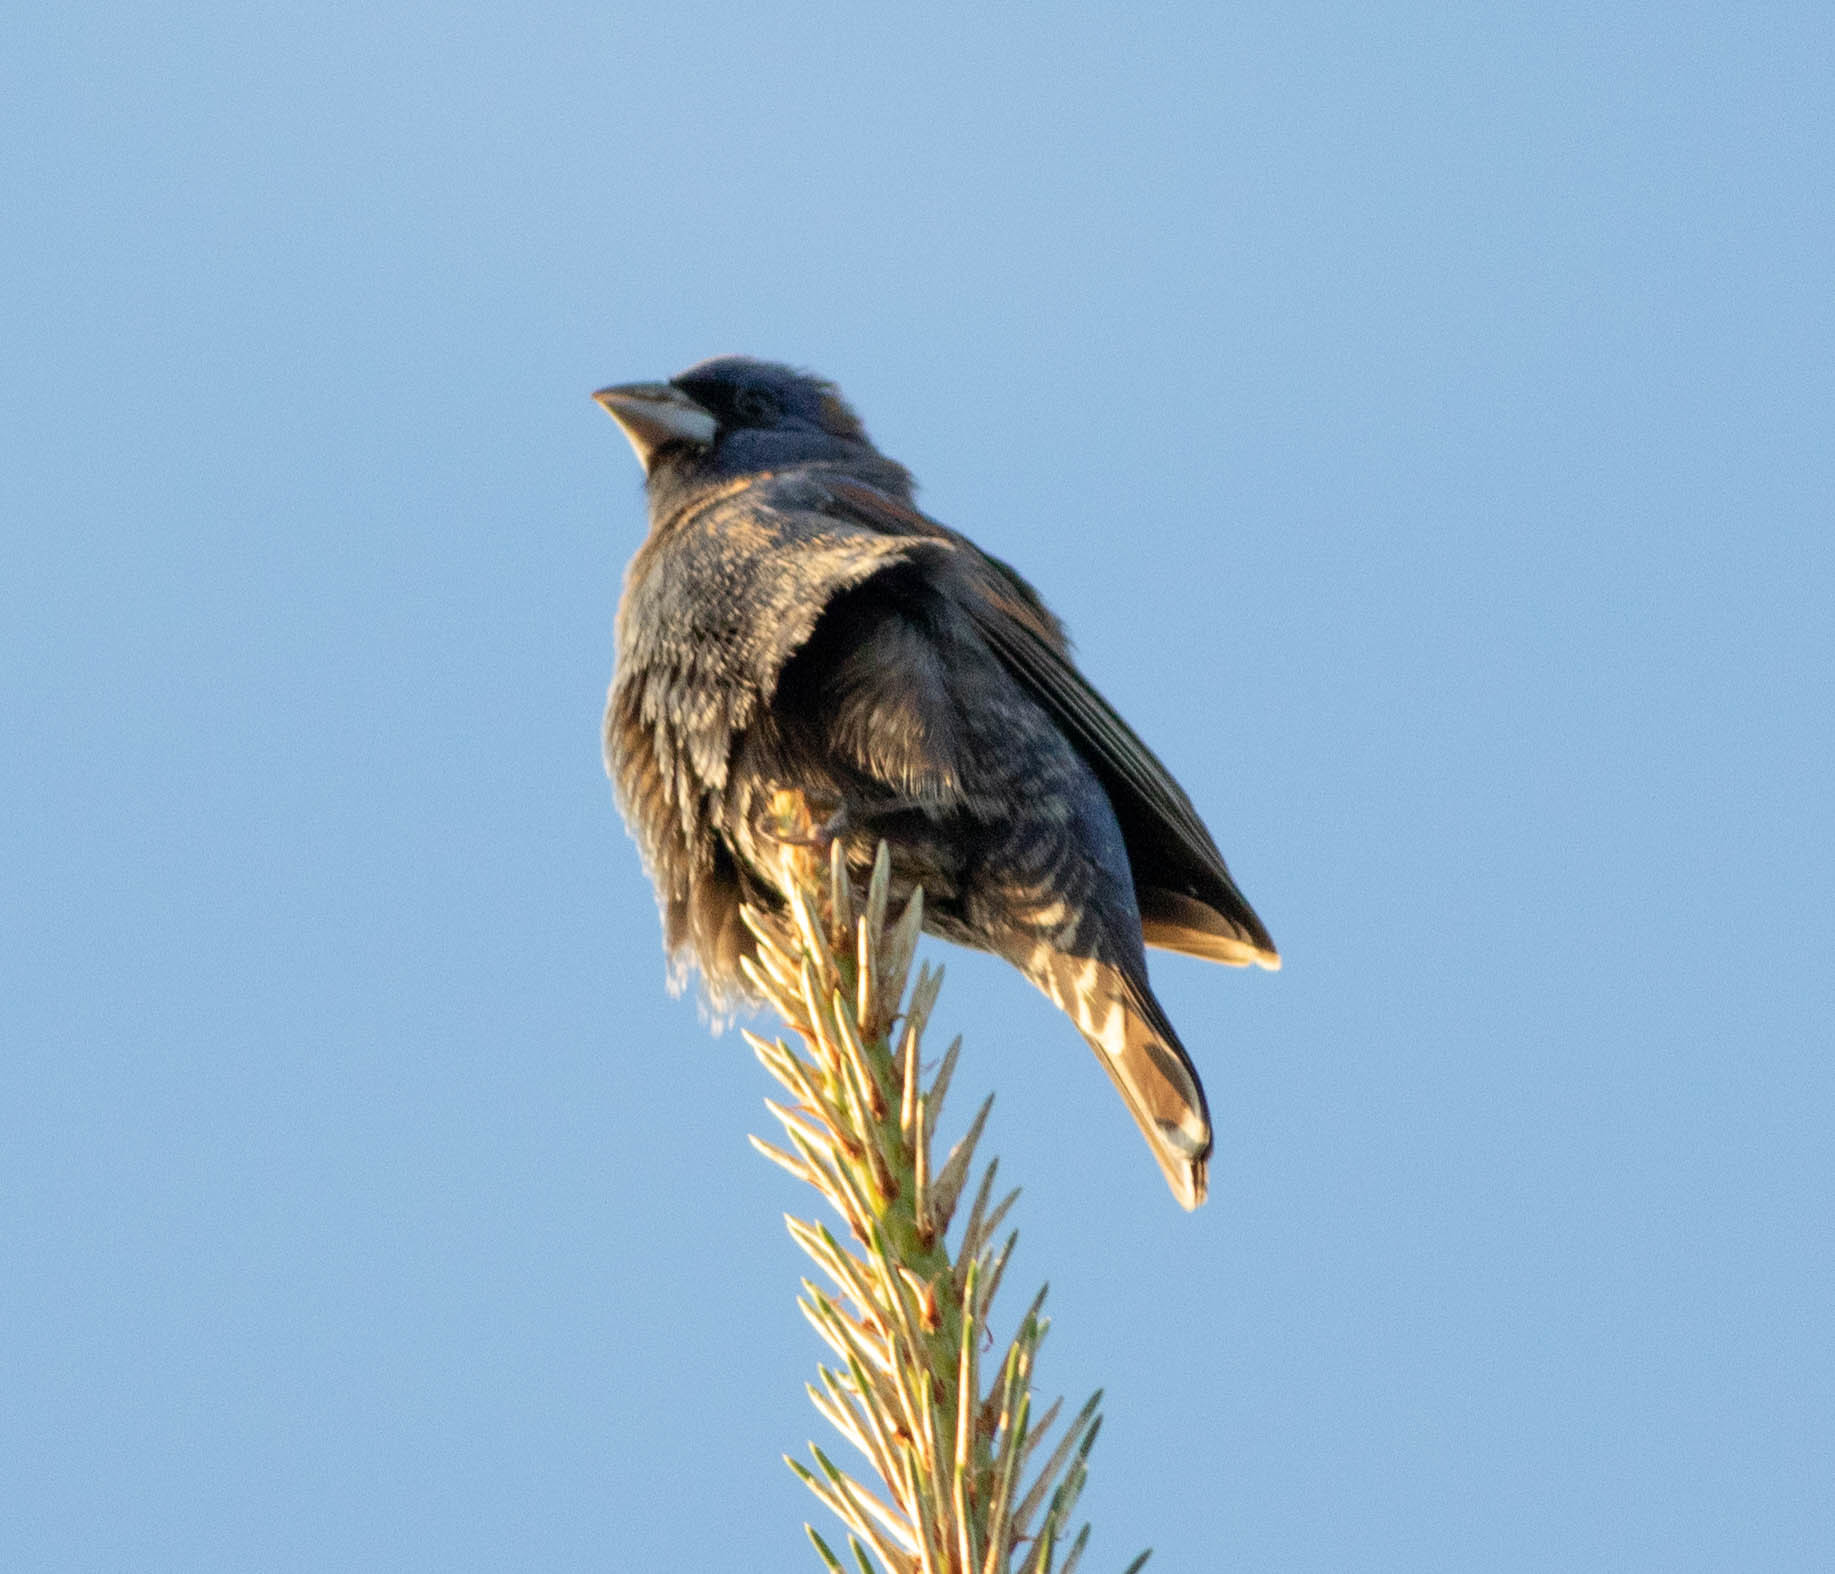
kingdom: Animalia
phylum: Chordata
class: Aves
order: Passeriformes
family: Cardinalidae
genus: Passerina
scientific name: Passerina caerulea
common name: Blue grosbeak
